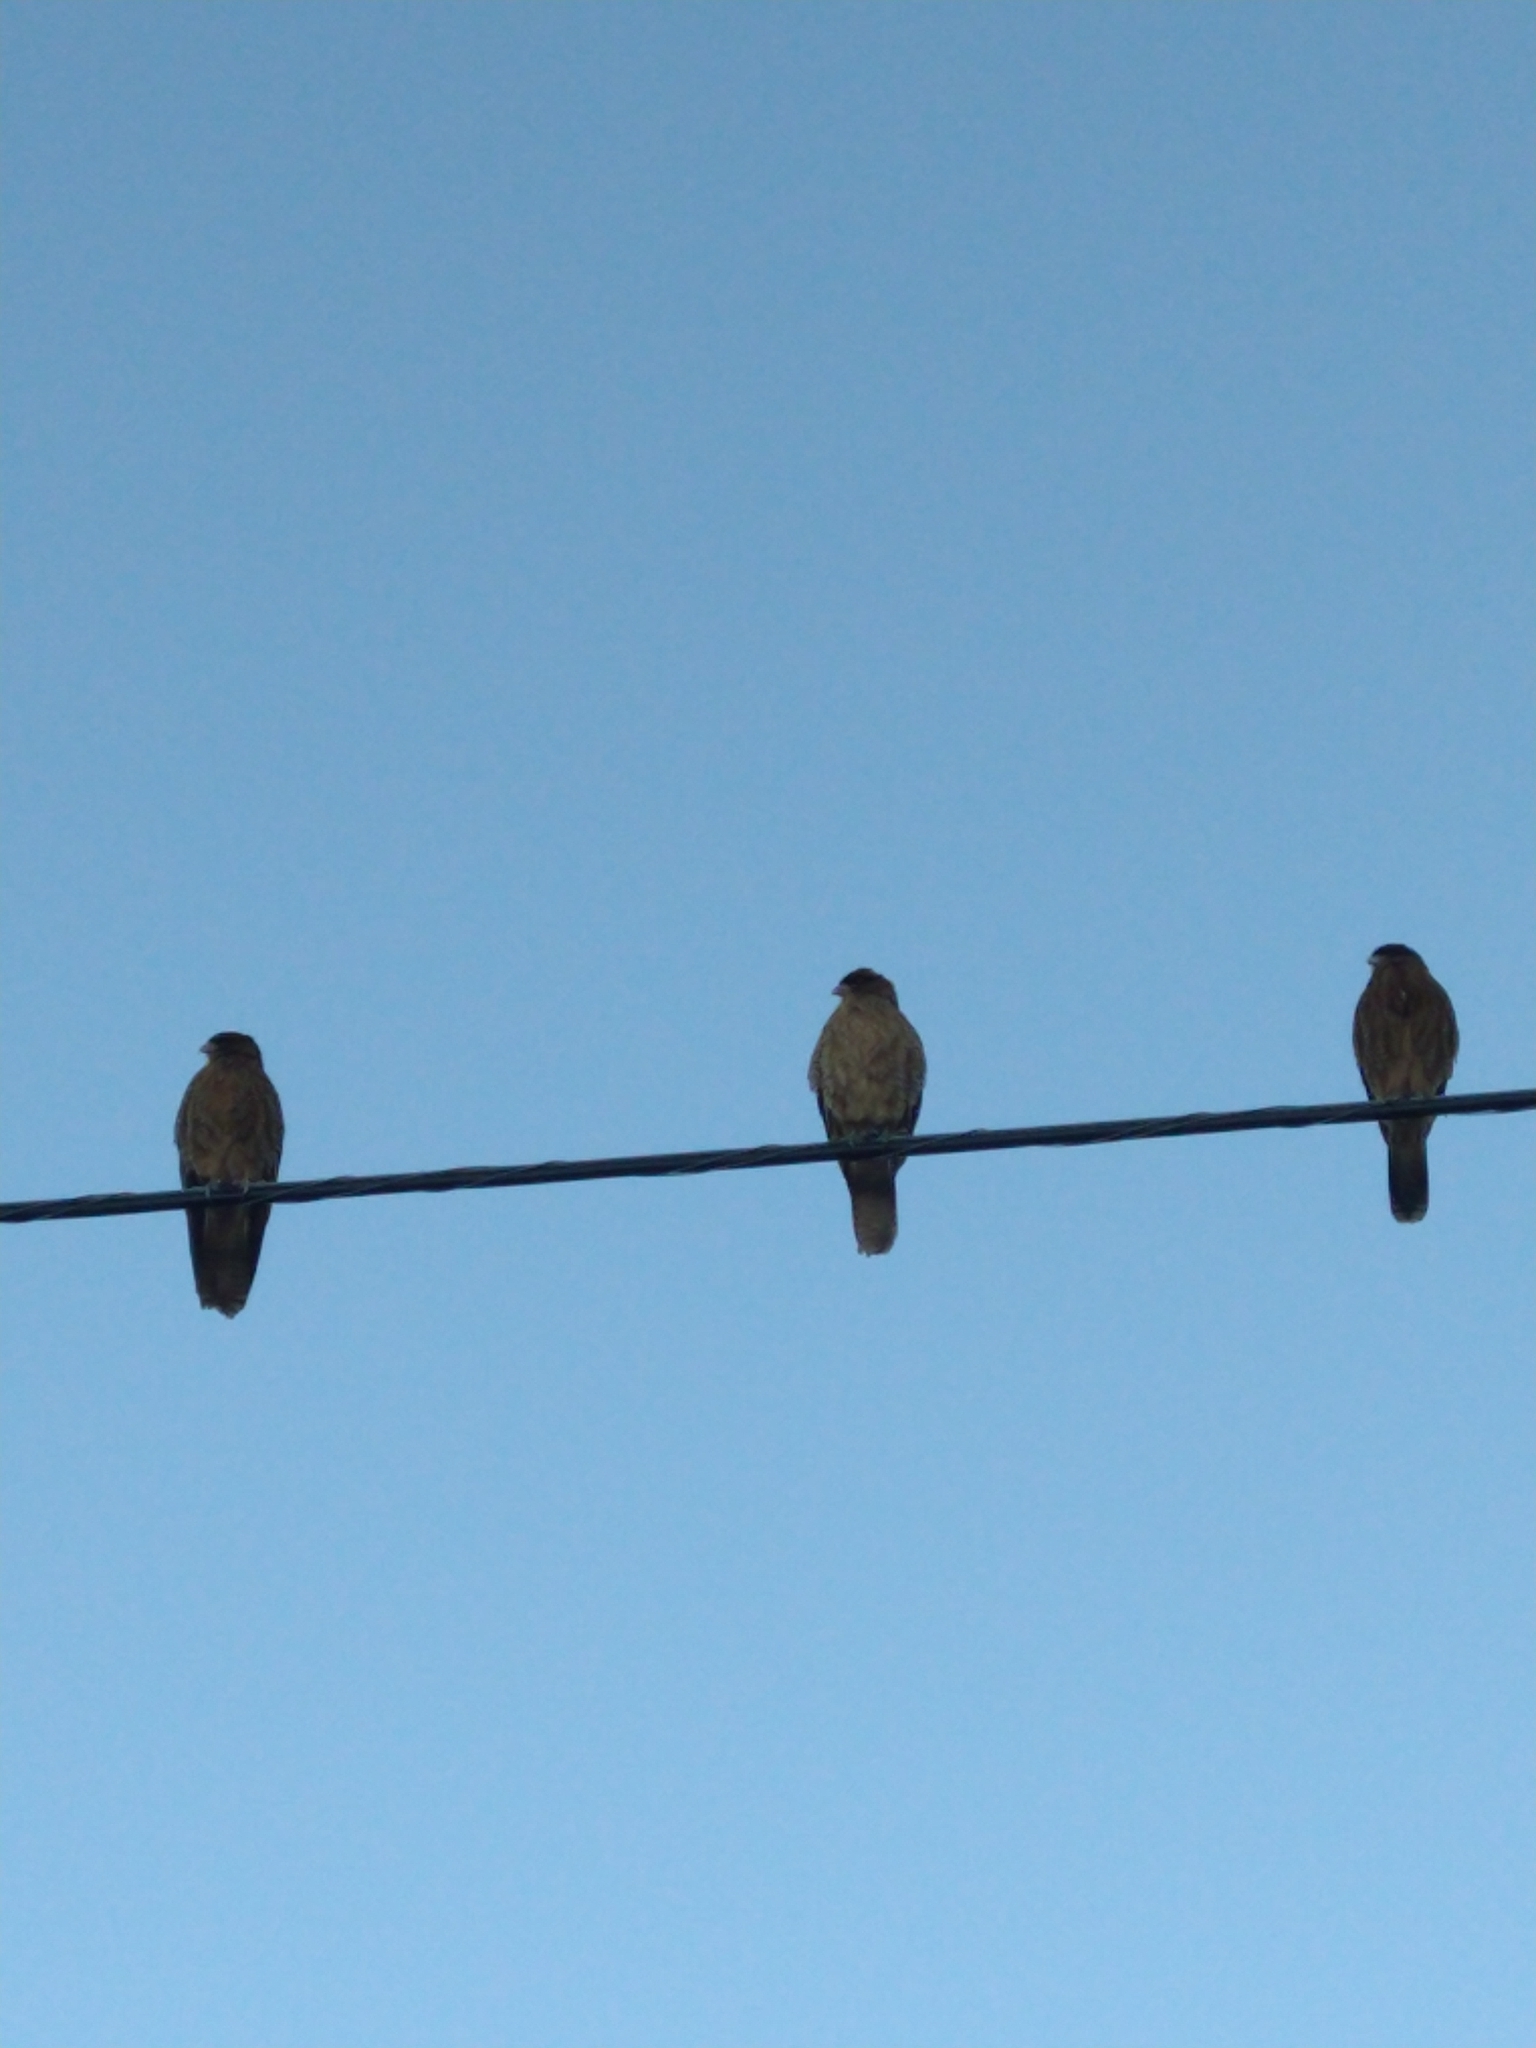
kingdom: Animalia
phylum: Chordata
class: Aves
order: Falconiformes
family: Falconidae
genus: Daptrius
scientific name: Daptrius
